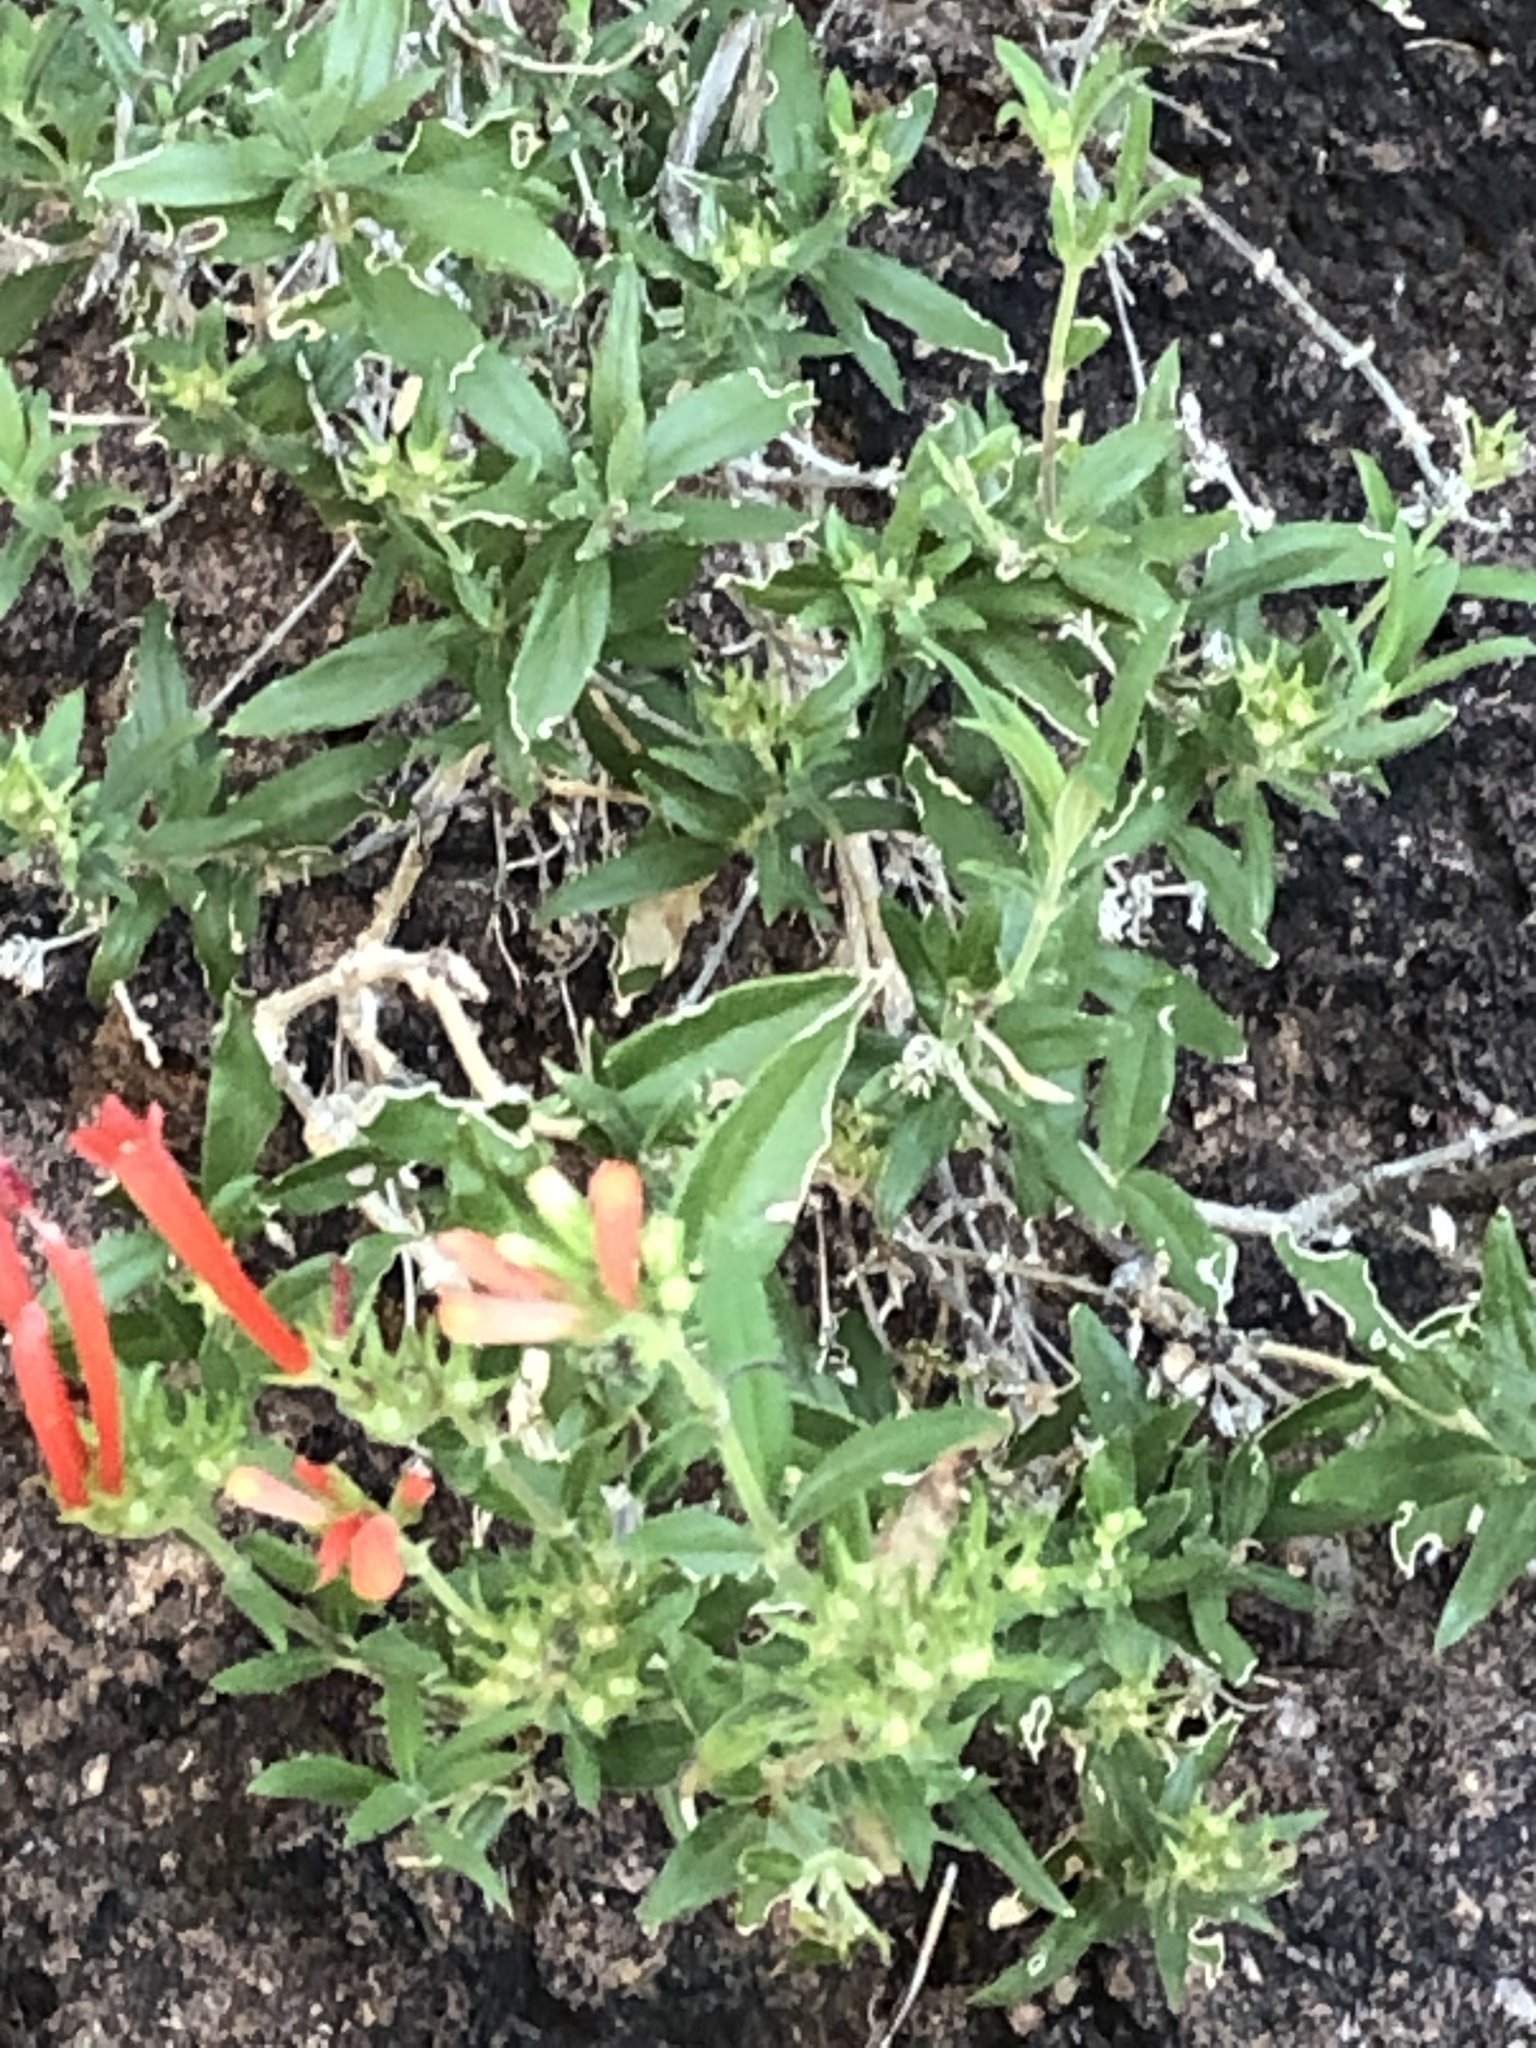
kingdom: Plantae
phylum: Tracheophyta
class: Magnoliopsida
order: Gentianales
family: Rubiaceae
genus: Bouvardia
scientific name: Bouvardia ternifolia
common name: Scarlet bouvardia
